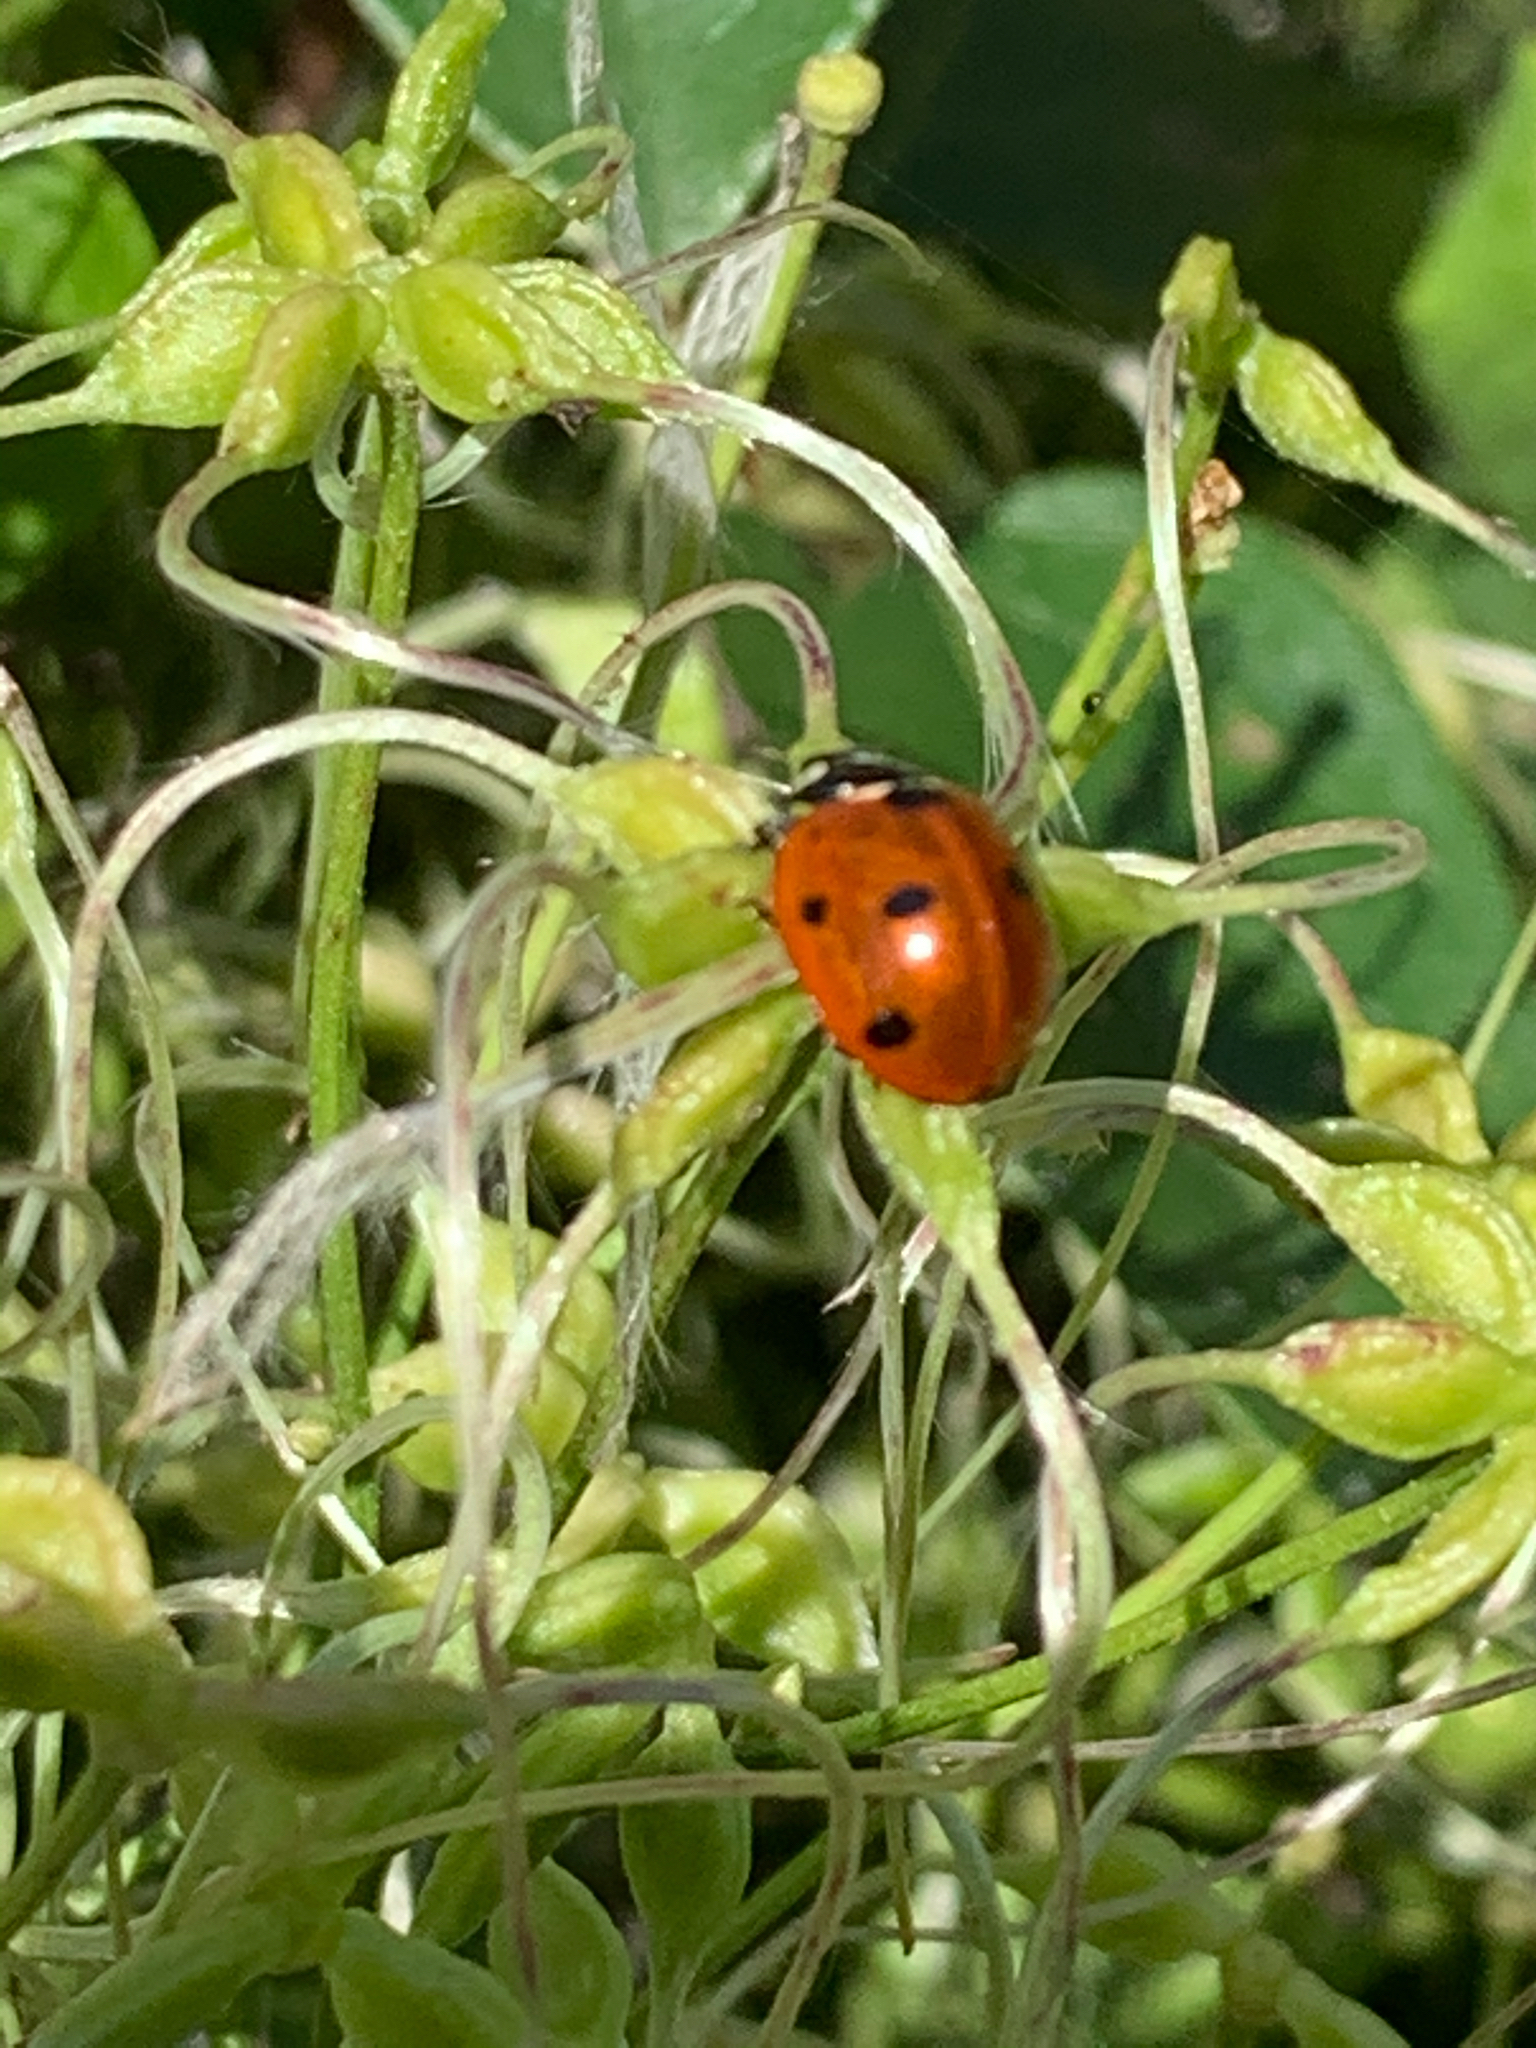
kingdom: Animalia
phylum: Arthropoda
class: Insecta
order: Coleoptera
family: Coccinellidae
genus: Coccinella
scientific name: Coccinella septempunctata
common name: Sevenspotted lady beetle
